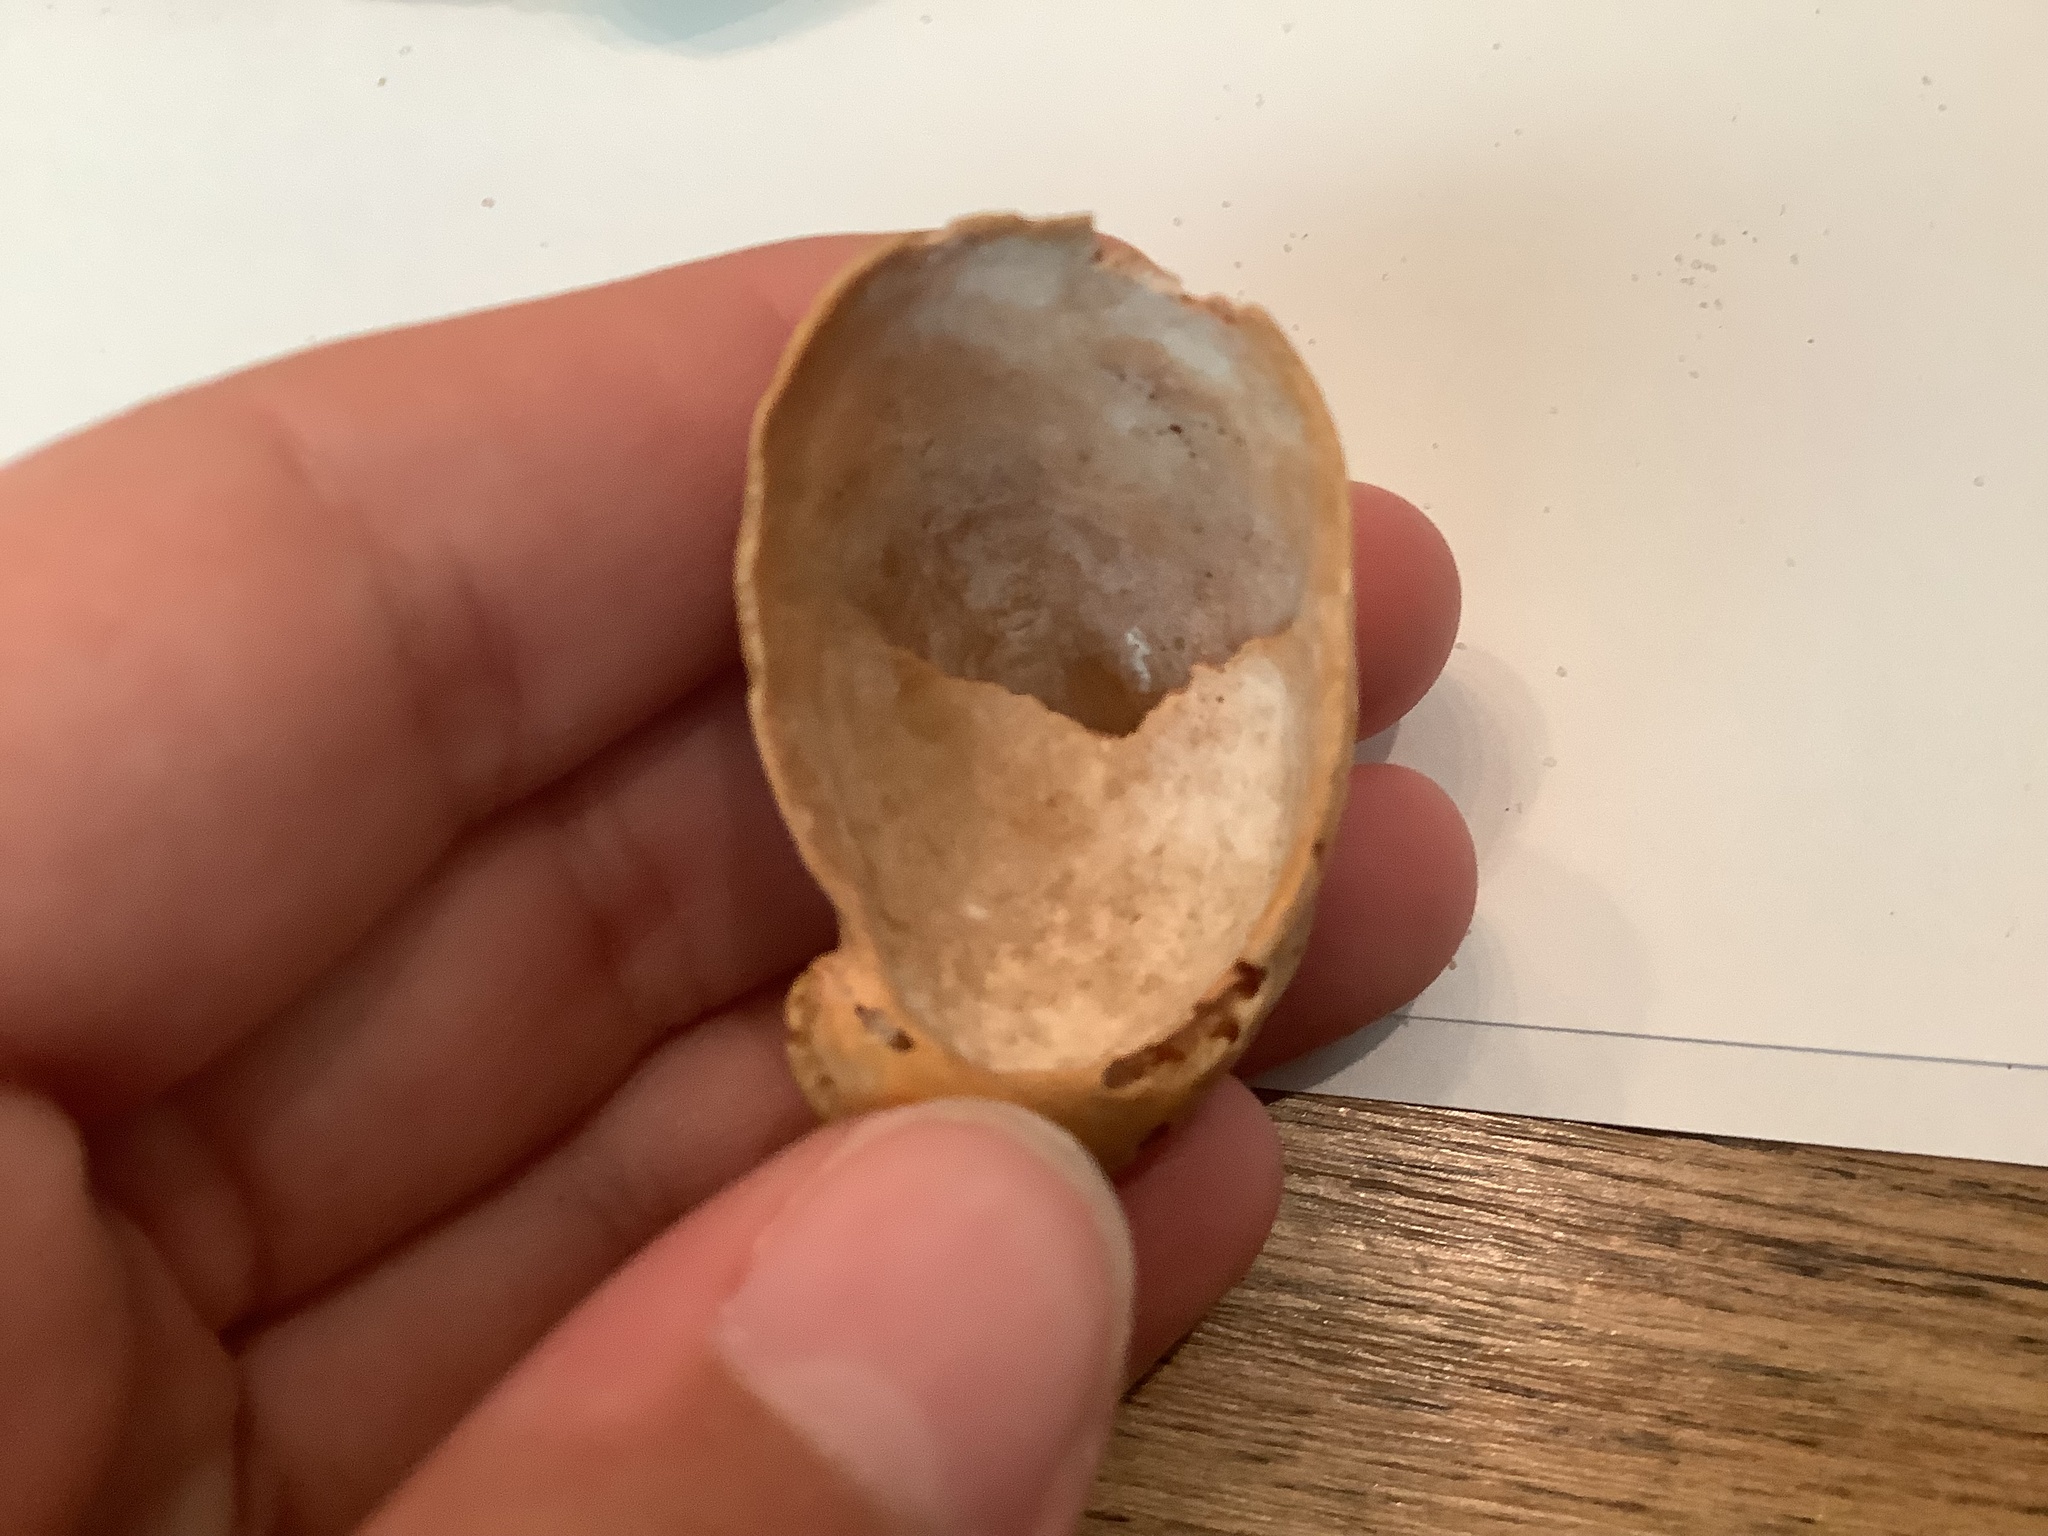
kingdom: Animalia
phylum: Mollusca
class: Gastropoda
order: Littorinimorpha
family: Calyptraeidae
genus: Crepidula
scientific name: Crepidula fornicata
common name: Slipper limpet
